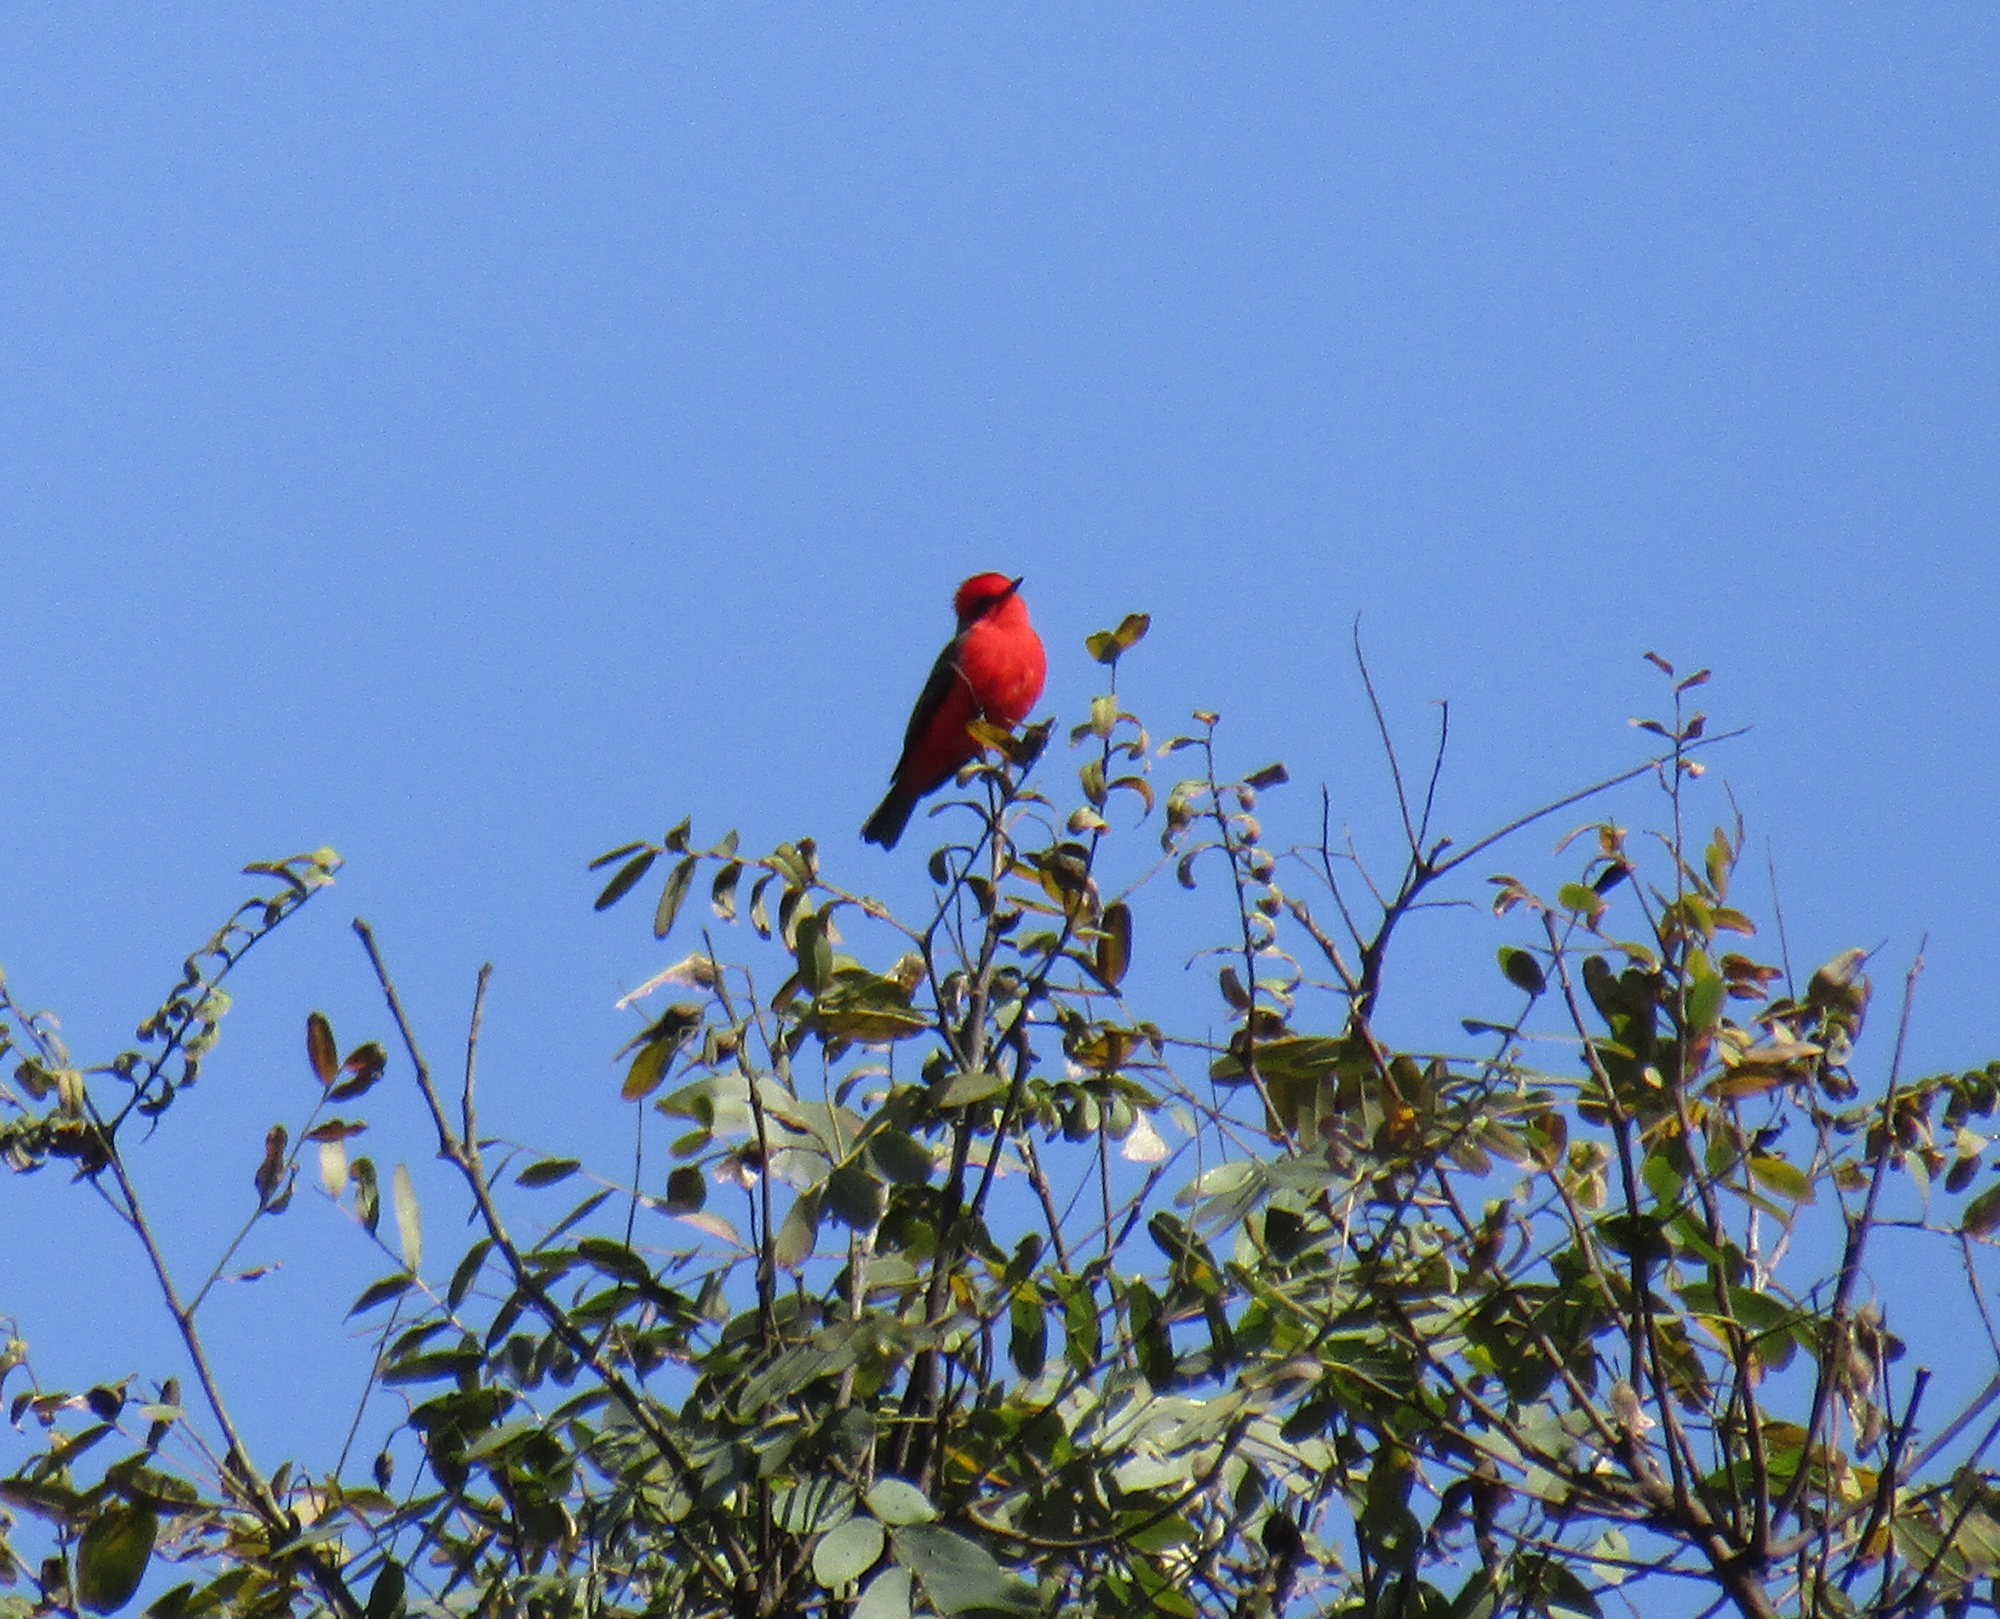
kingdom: Animalia
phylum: Chordata
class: Aves
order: Passeriformes
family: Tyrannidae
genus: Pyrocephalus
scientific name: Pyrocephalus rubinus
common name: Vermilion flycatcher
